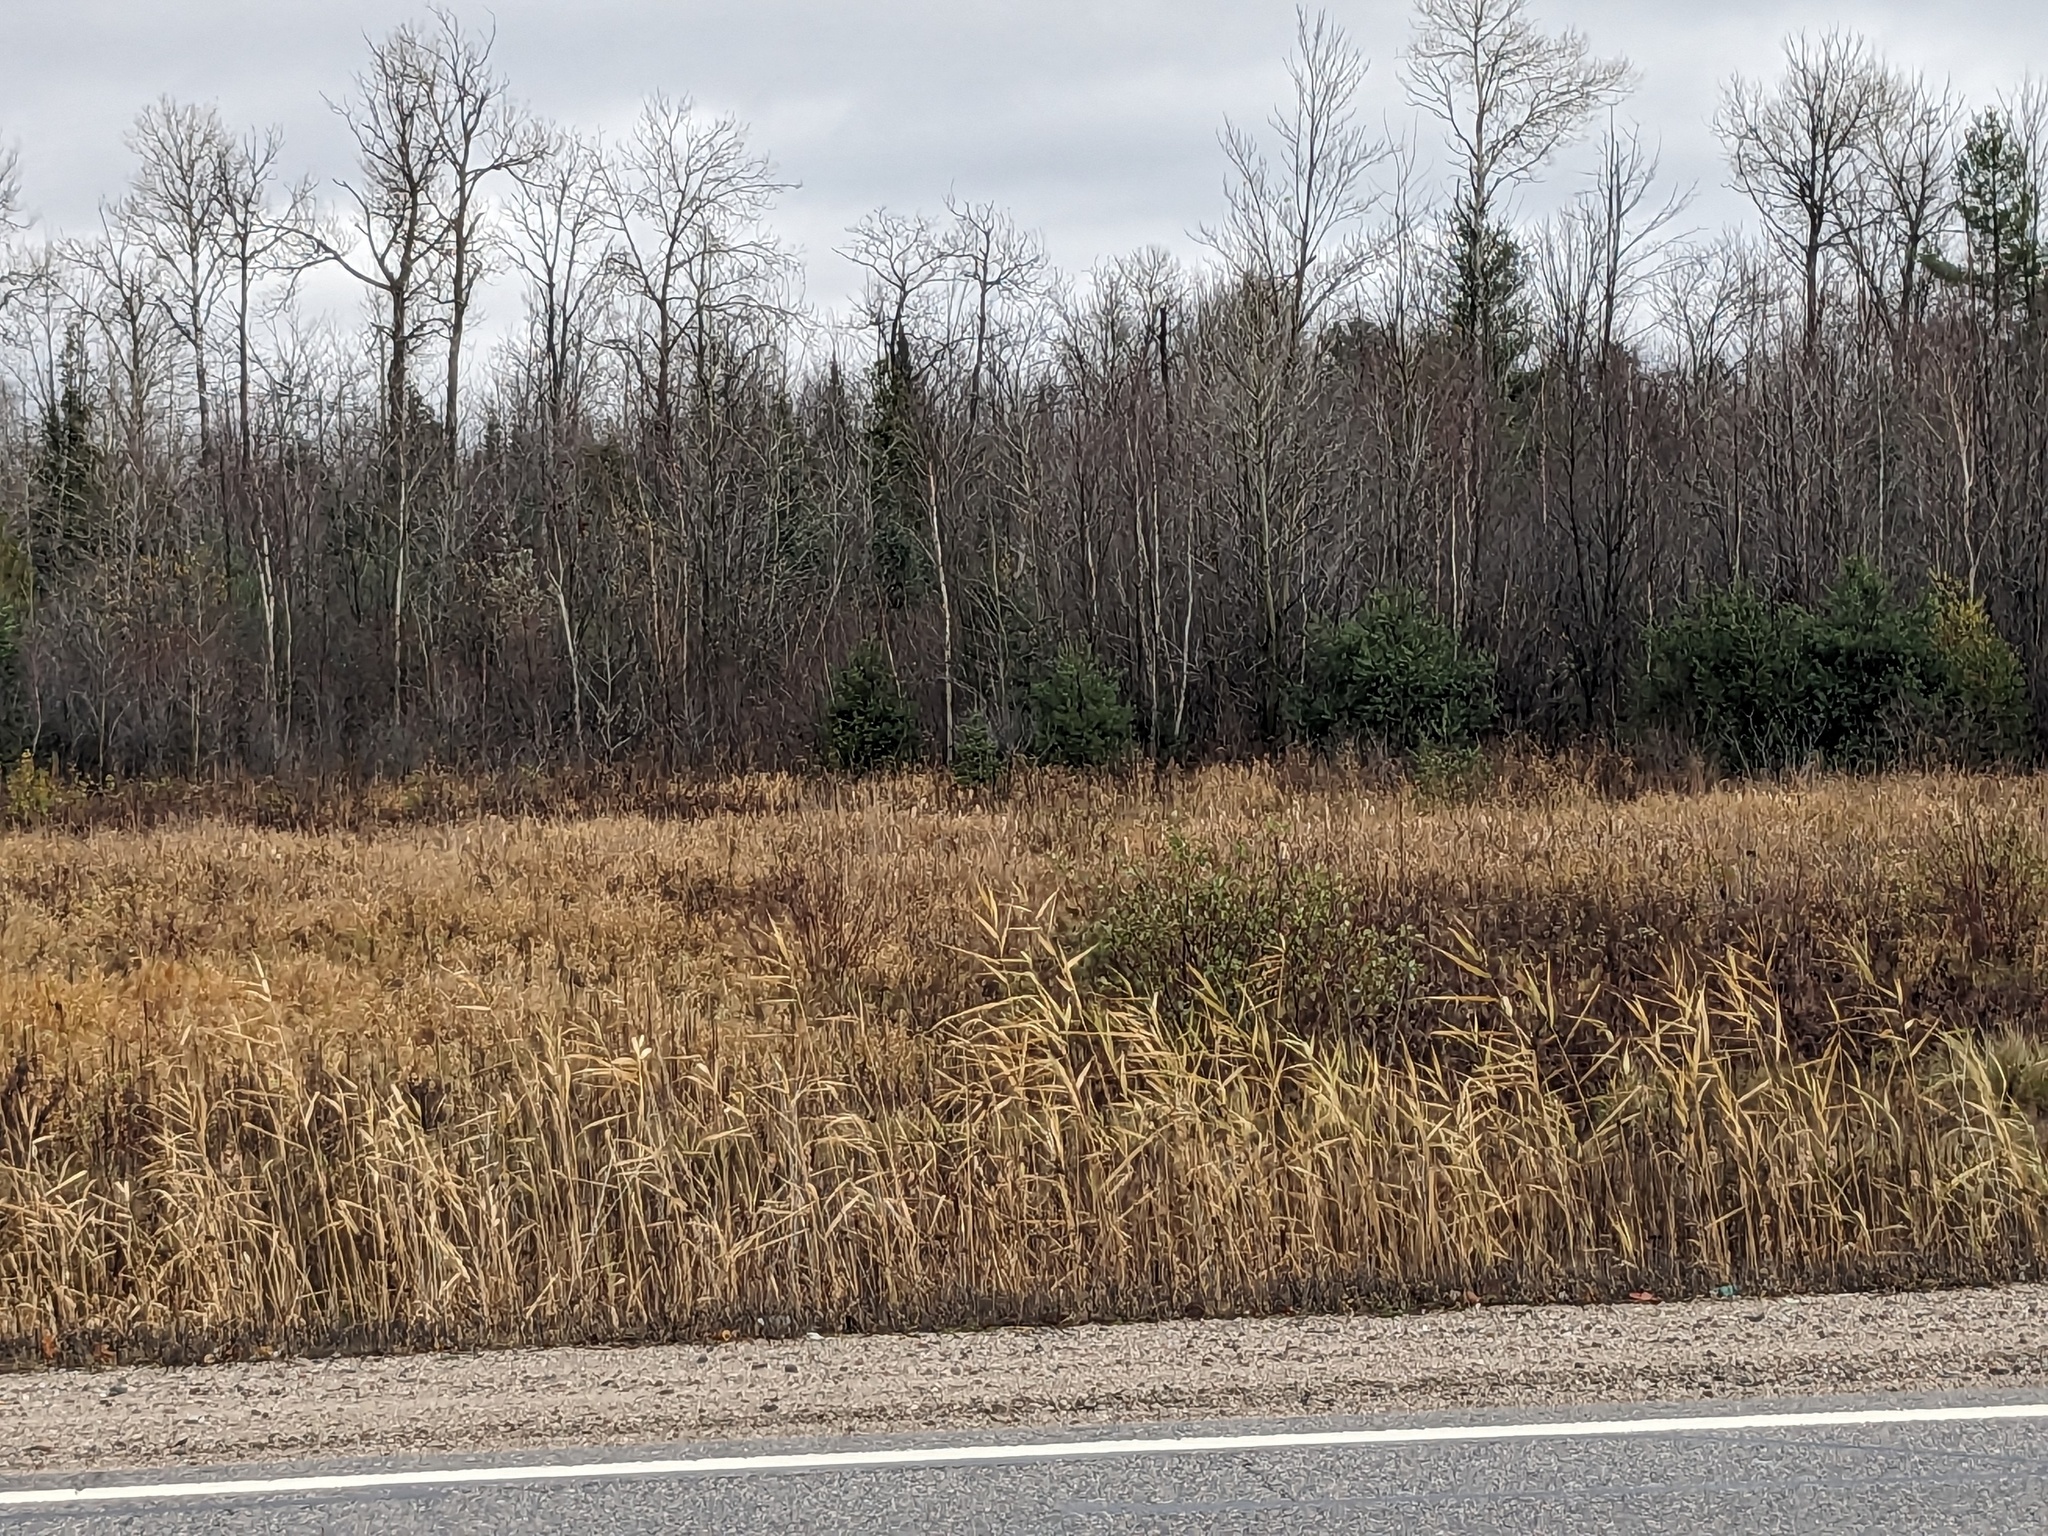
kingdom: Plantae
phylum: Tracheophyta
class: Liliopsida
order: Poales
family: Poaceae
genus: Phragmites
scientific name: Phragmites australis
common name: Common reed
